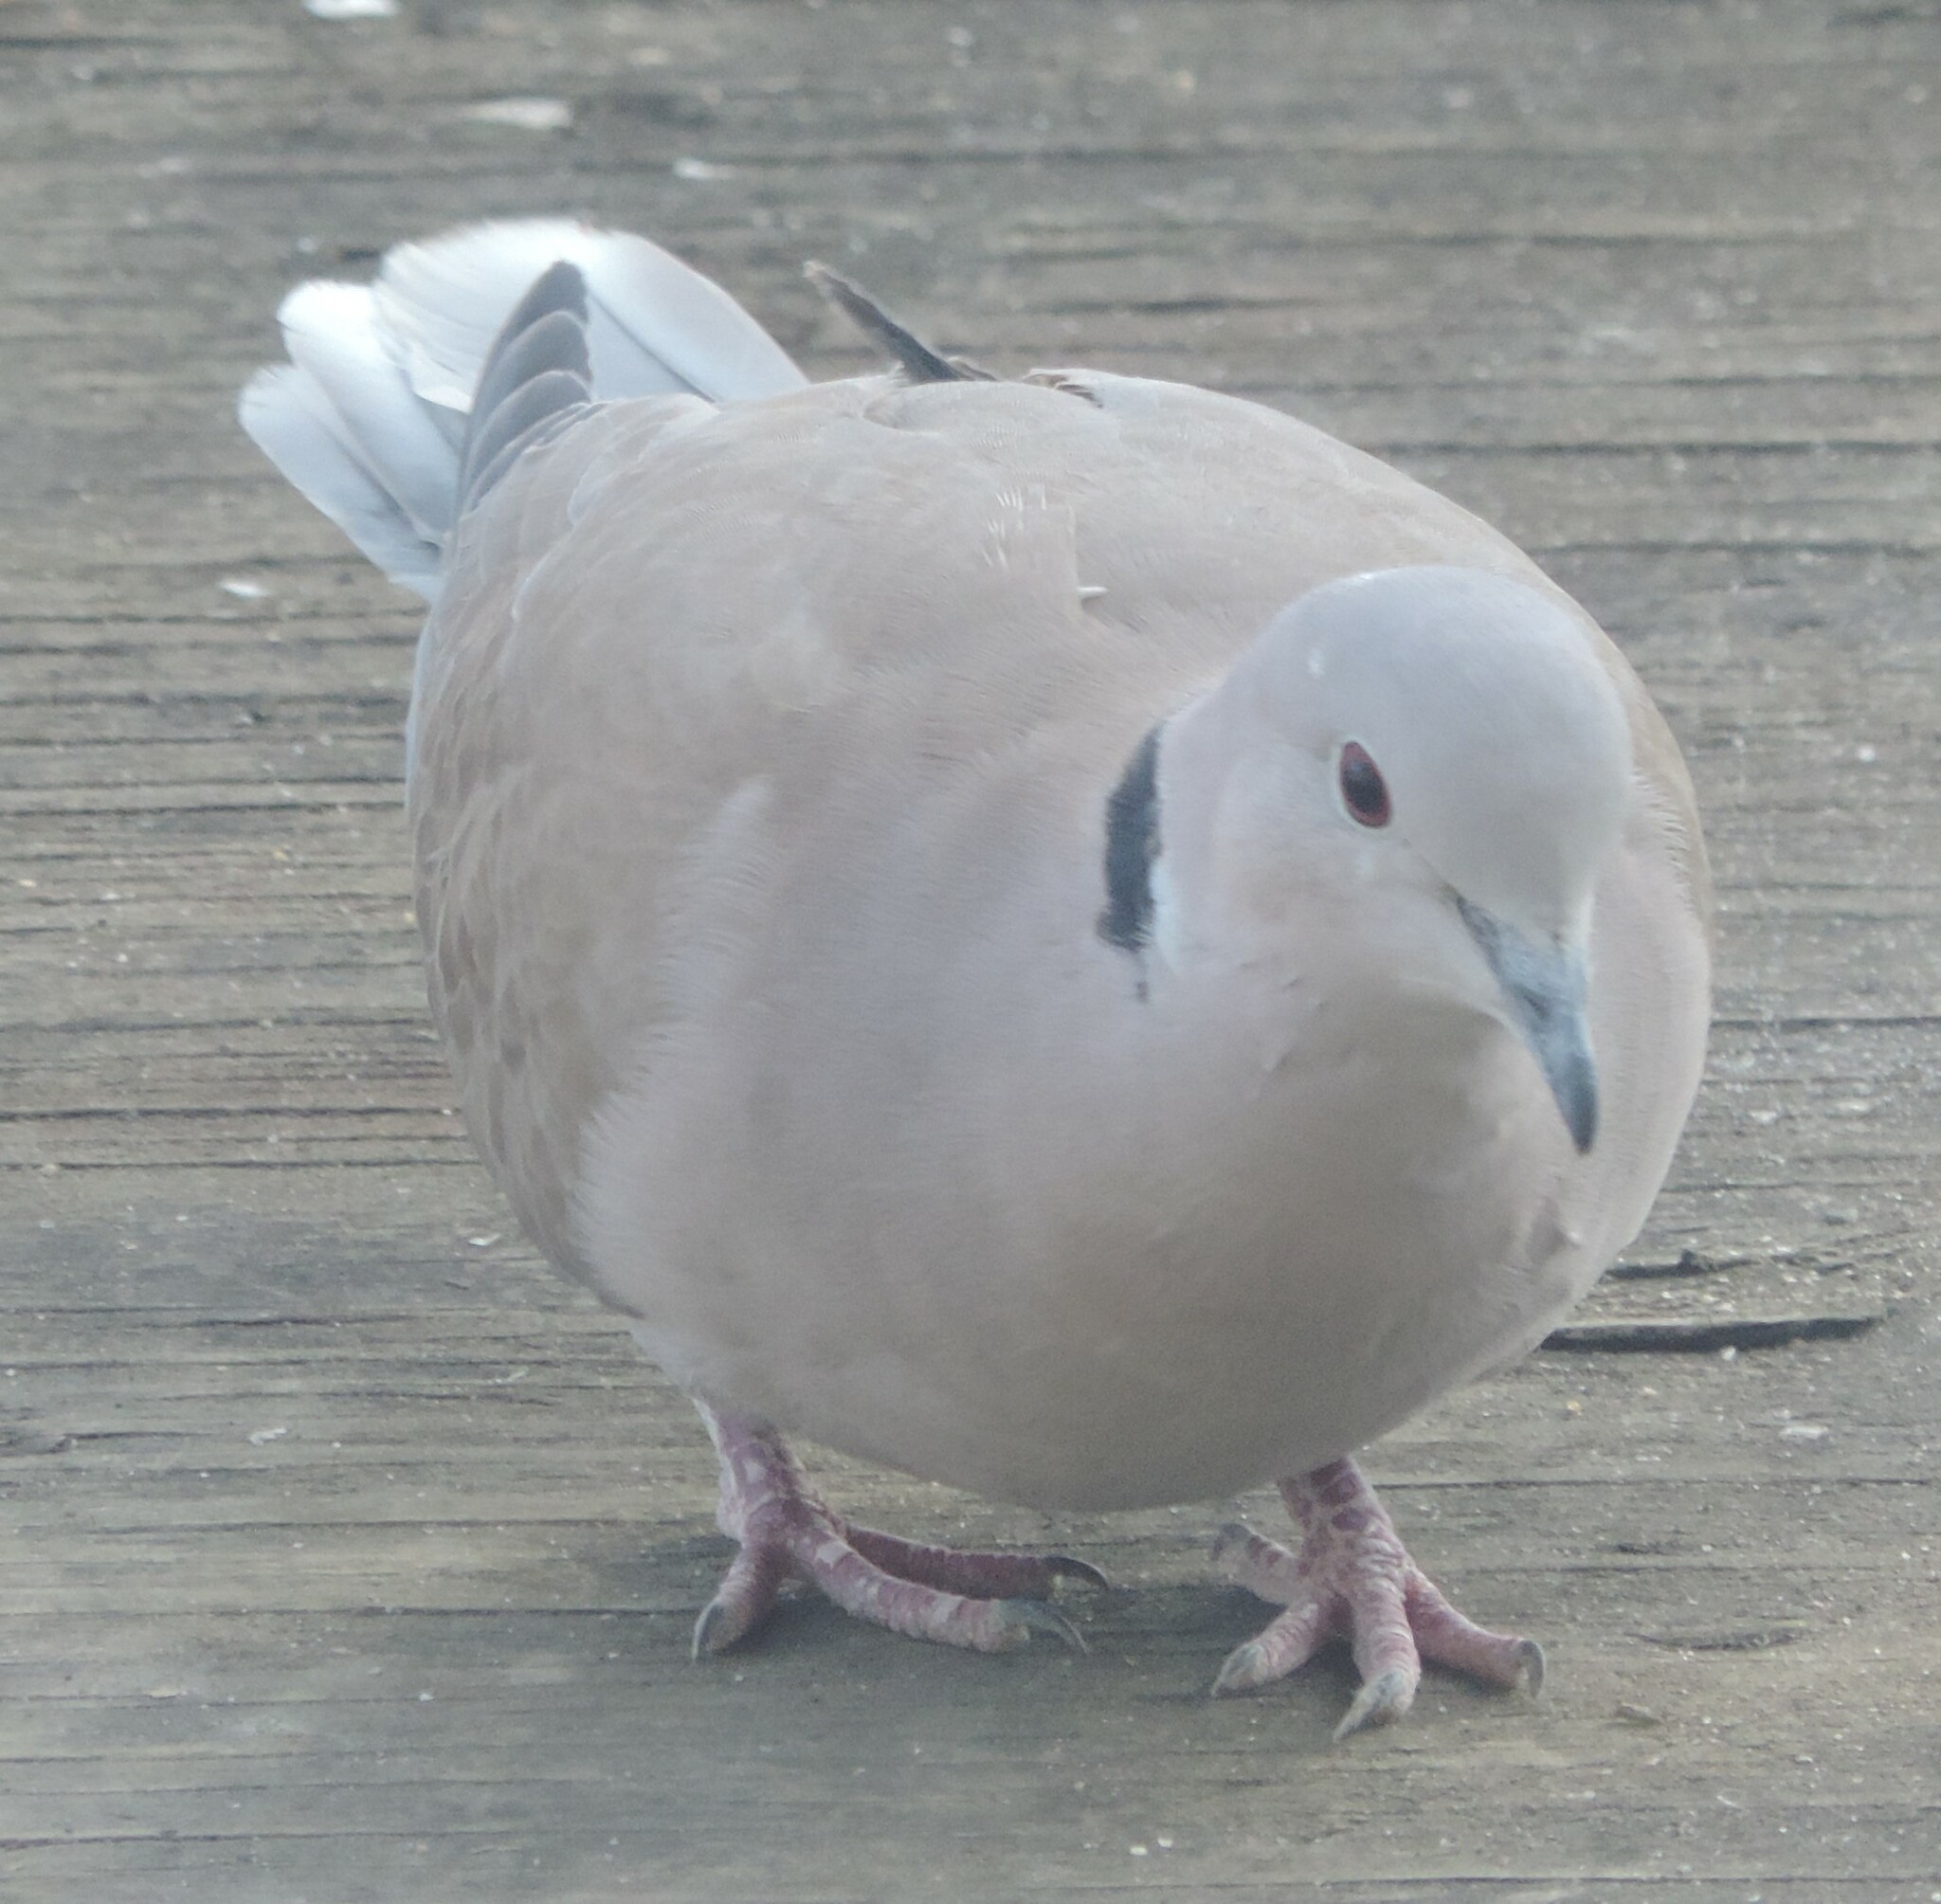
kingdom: Animalia
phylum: Chordata
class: Aves
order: Columbiformes
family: Columbidae
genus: Streptopelia
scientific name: Streptopelia decaocto
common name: Eurasian collared dove
